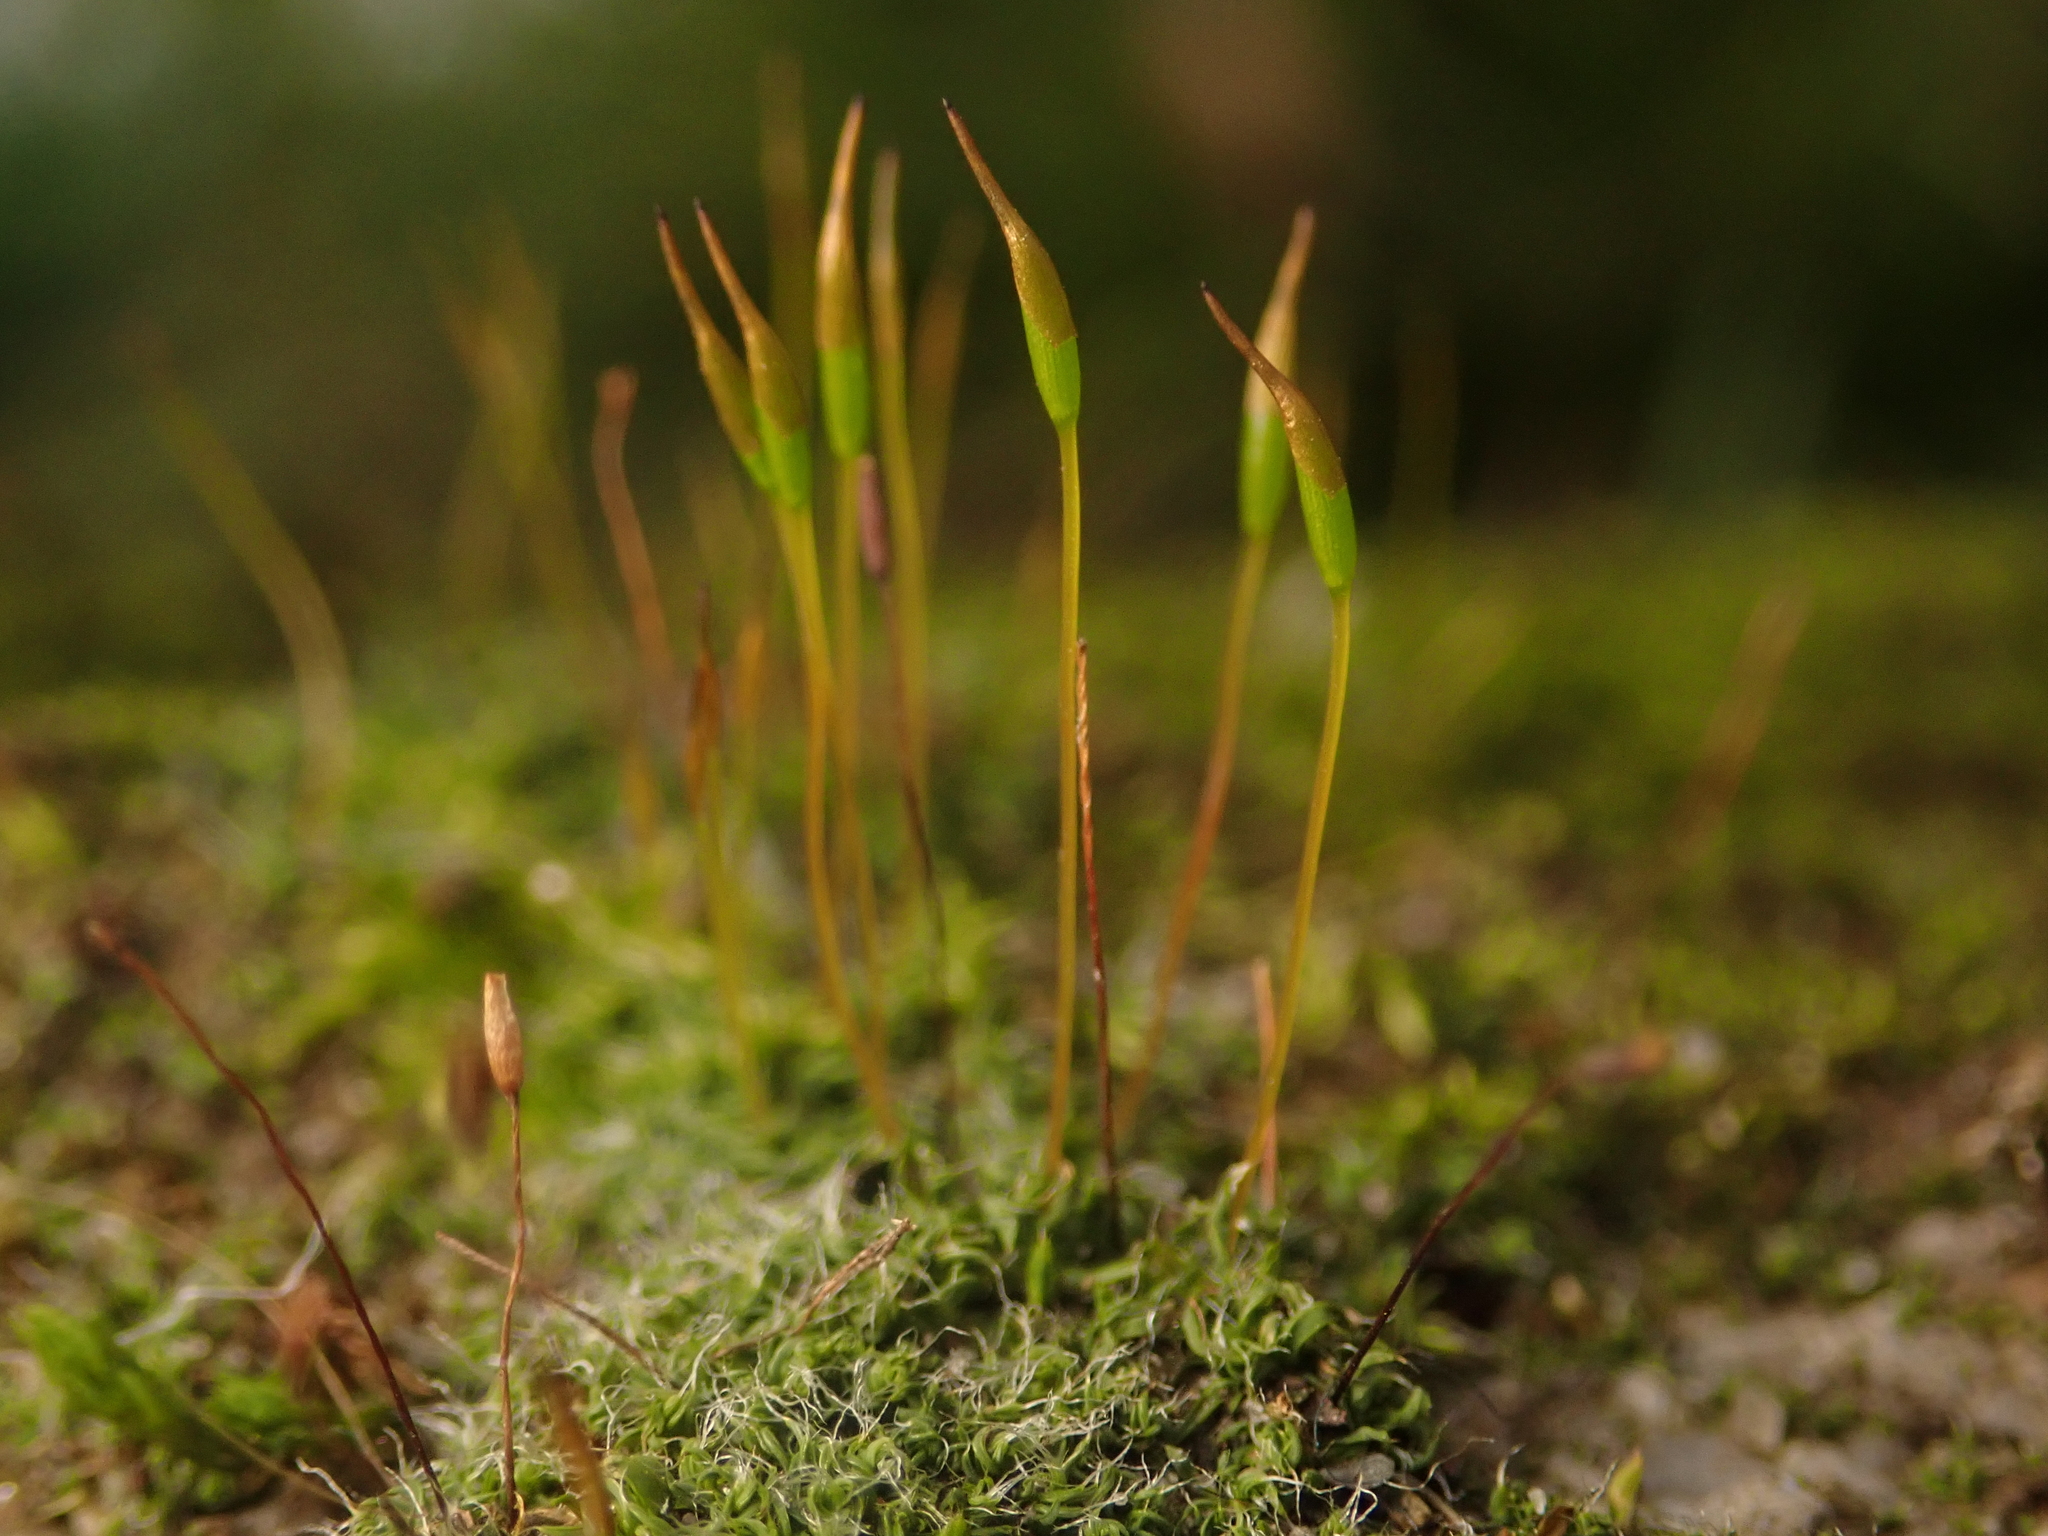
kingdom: Plantae
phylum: Bryophyta
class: Bryopsida
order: Pottiales
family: Pottiaceae
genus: Tortula
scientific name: Tortula muralis
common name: Wall screw-moss
